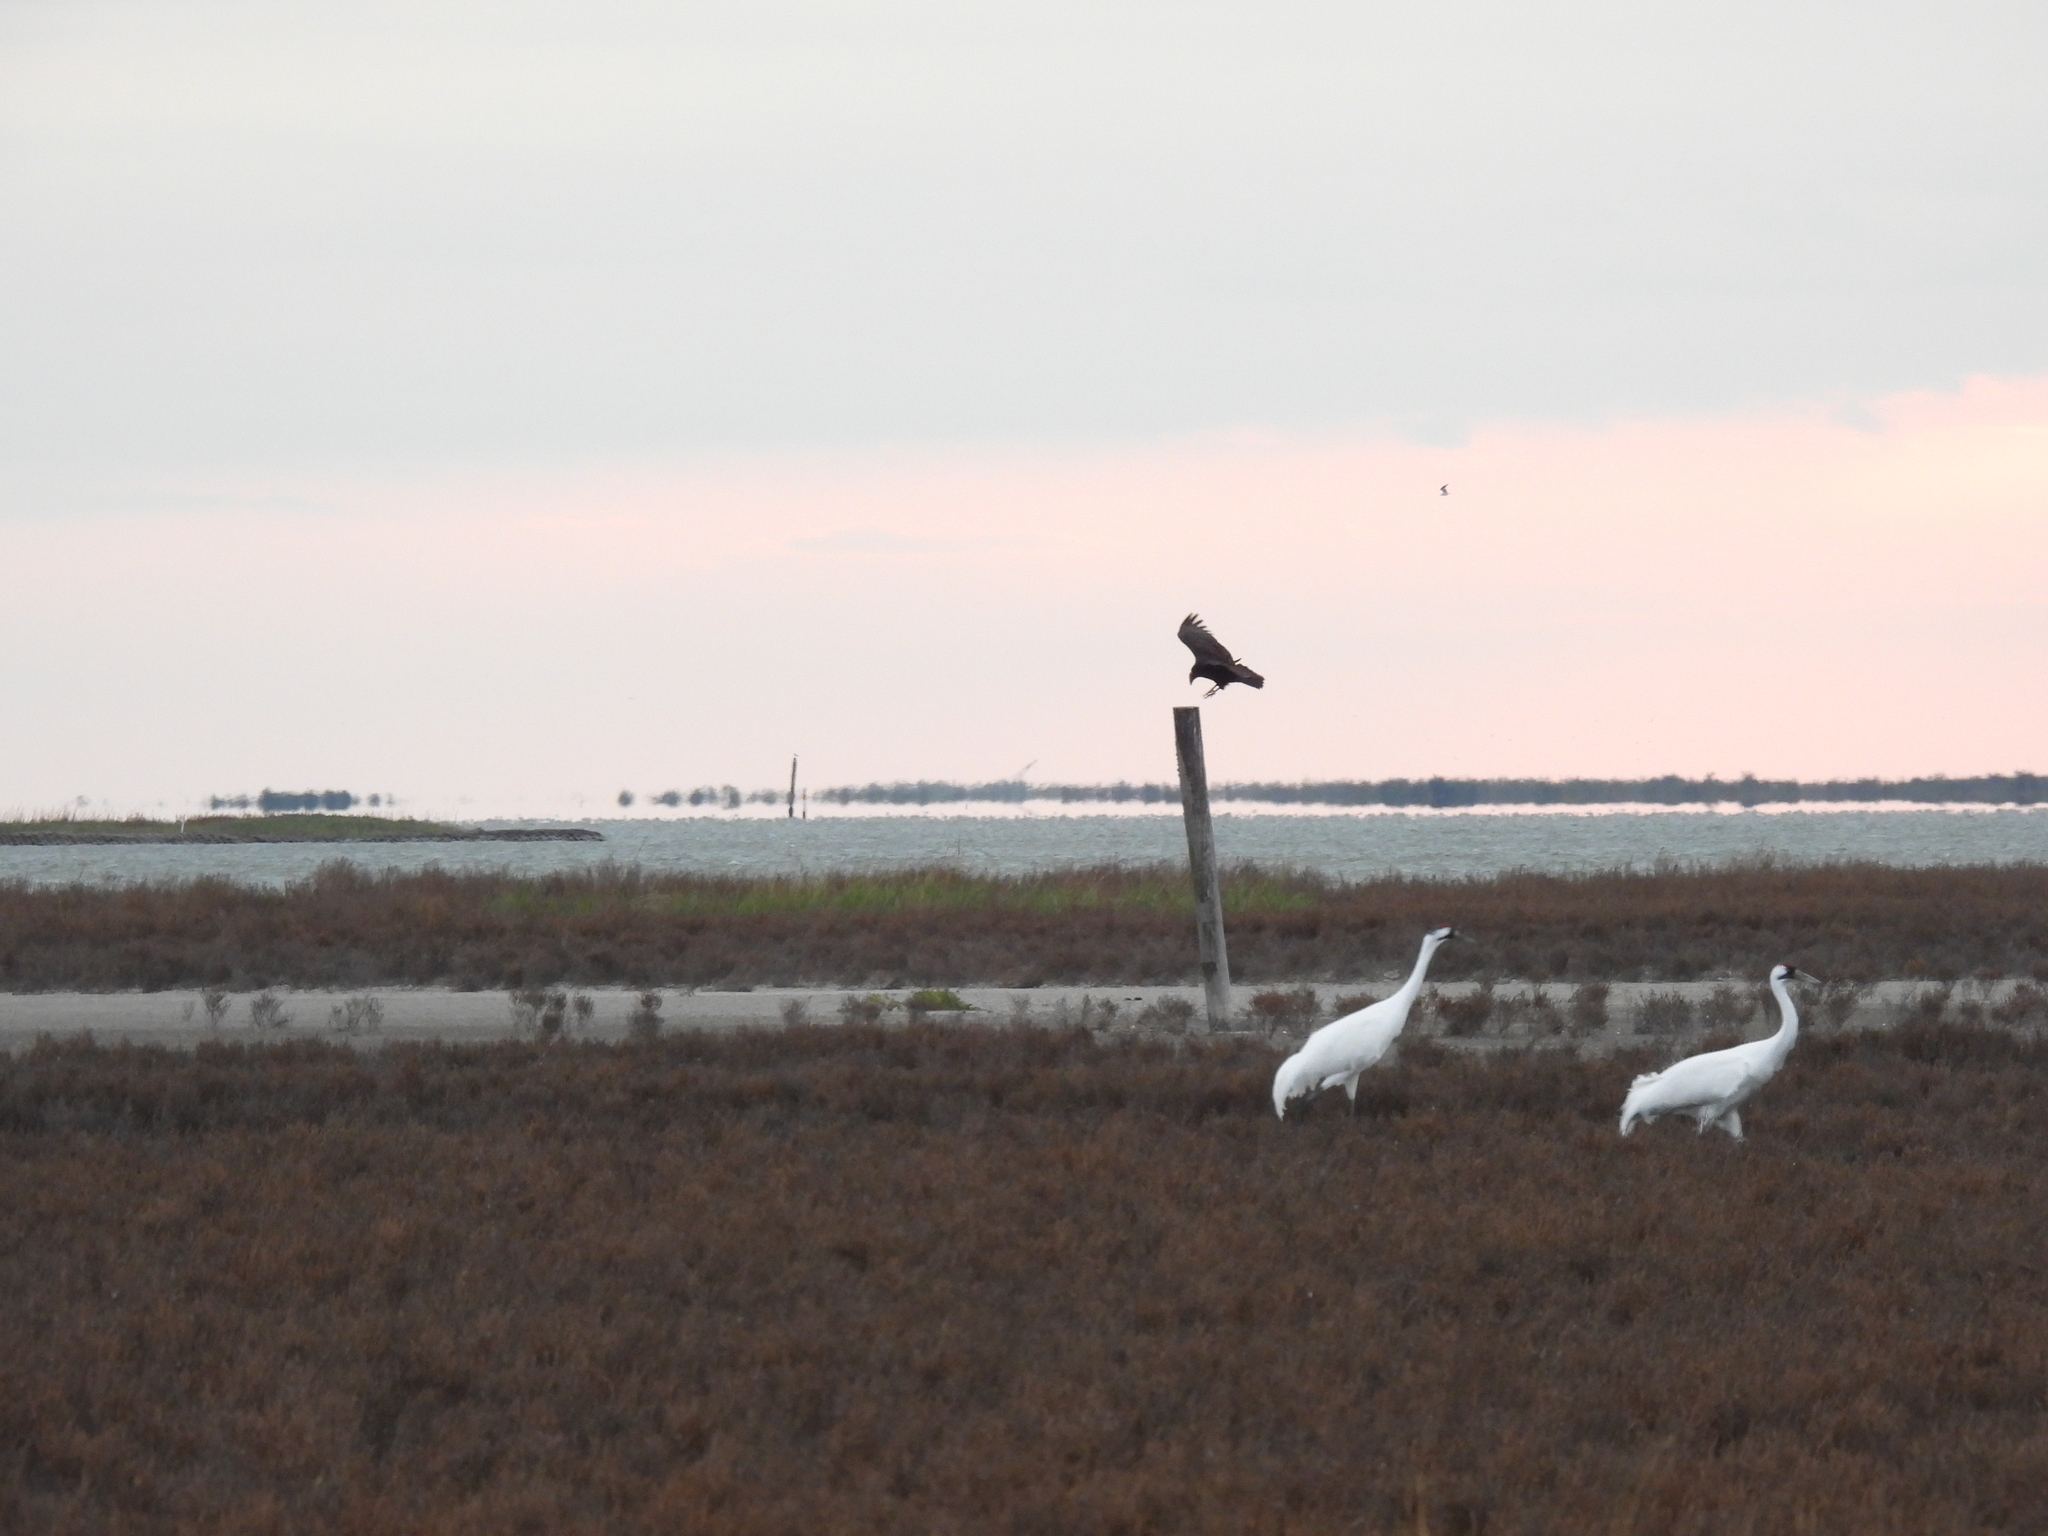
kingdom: Animalia
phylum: Chordata
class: Aves
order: Accipitriformes
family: Cathartidae
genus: Cathartes
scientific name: Cathartes aura
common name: Turkey vulture
